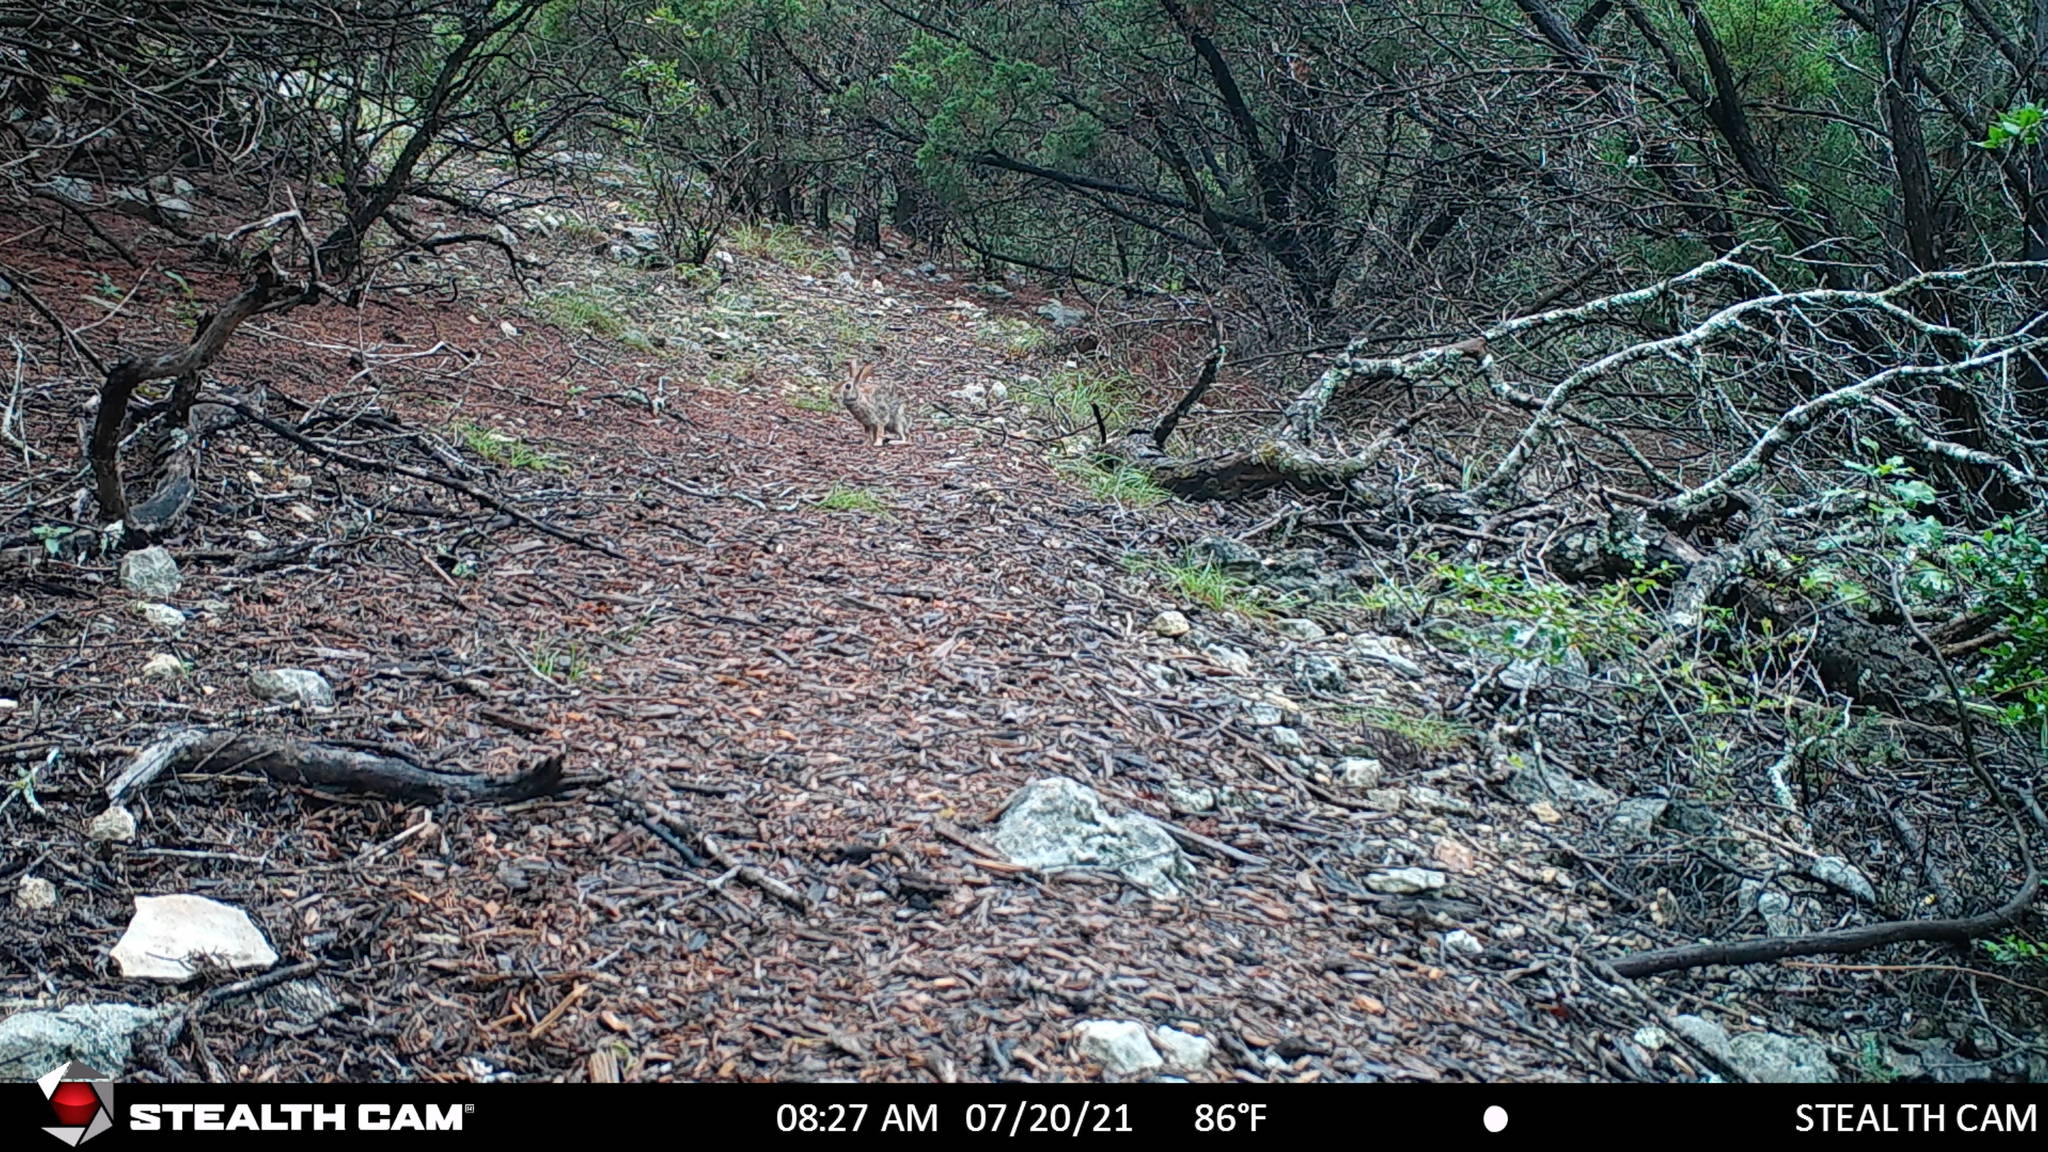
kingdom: Animalia
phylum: Chordata
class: Mammalia
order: Lagomorpha
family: Leporidae
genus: Sylvilagus
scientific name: Sylvilagus floridanus
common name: Eastern cottontail
